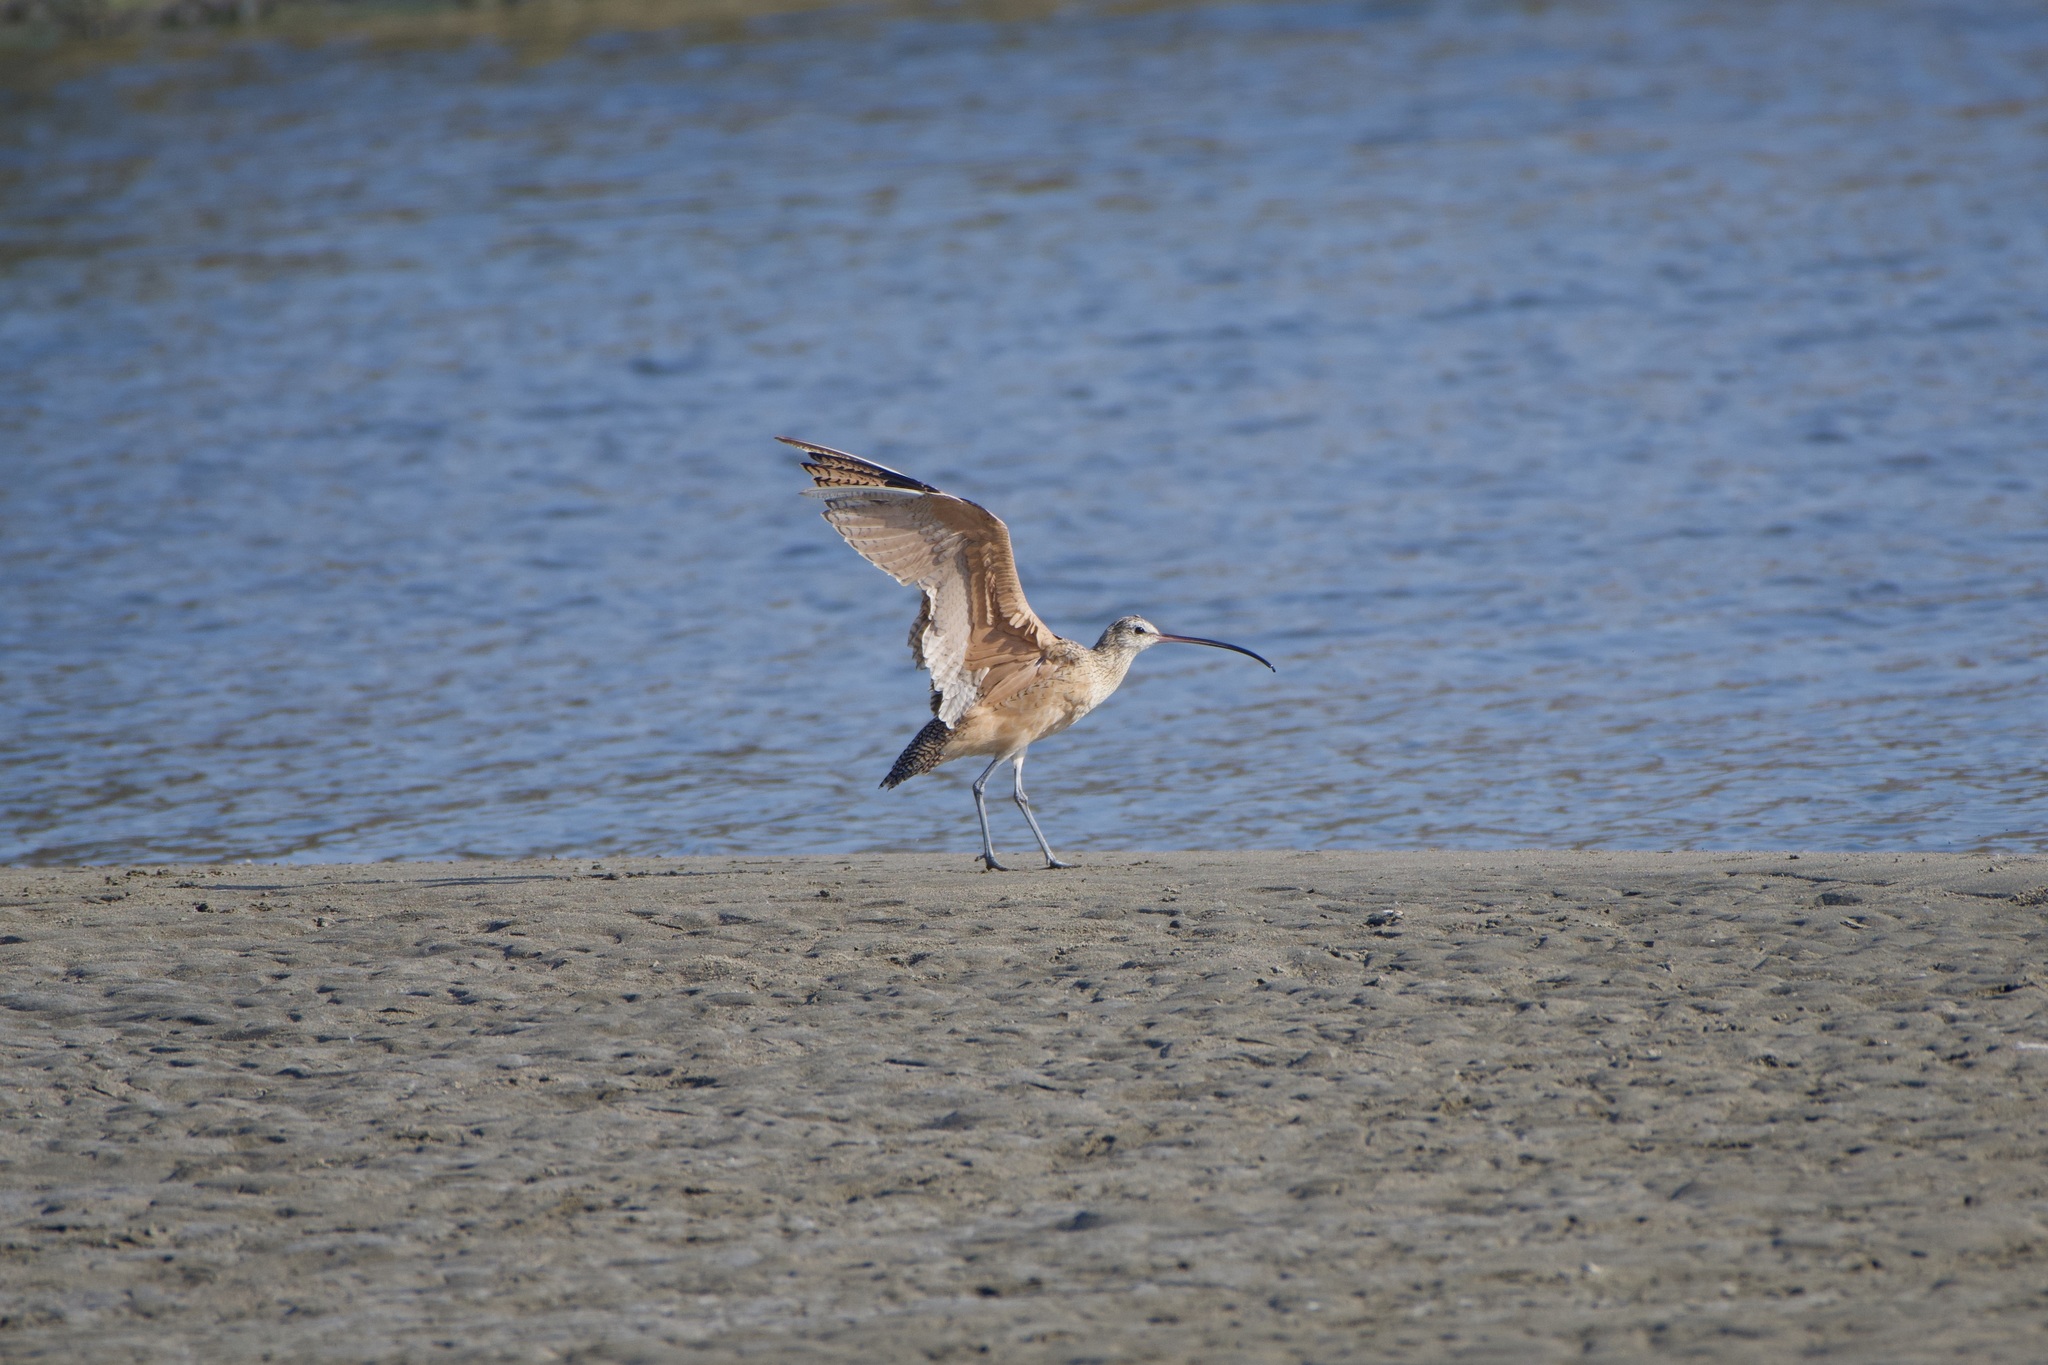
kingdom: Animalia
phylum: Chordata
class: Aves
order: Charadriiformes
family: Scolopacidae
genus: Numenius
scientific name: Numenius americanus
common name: Long-billed curlew
